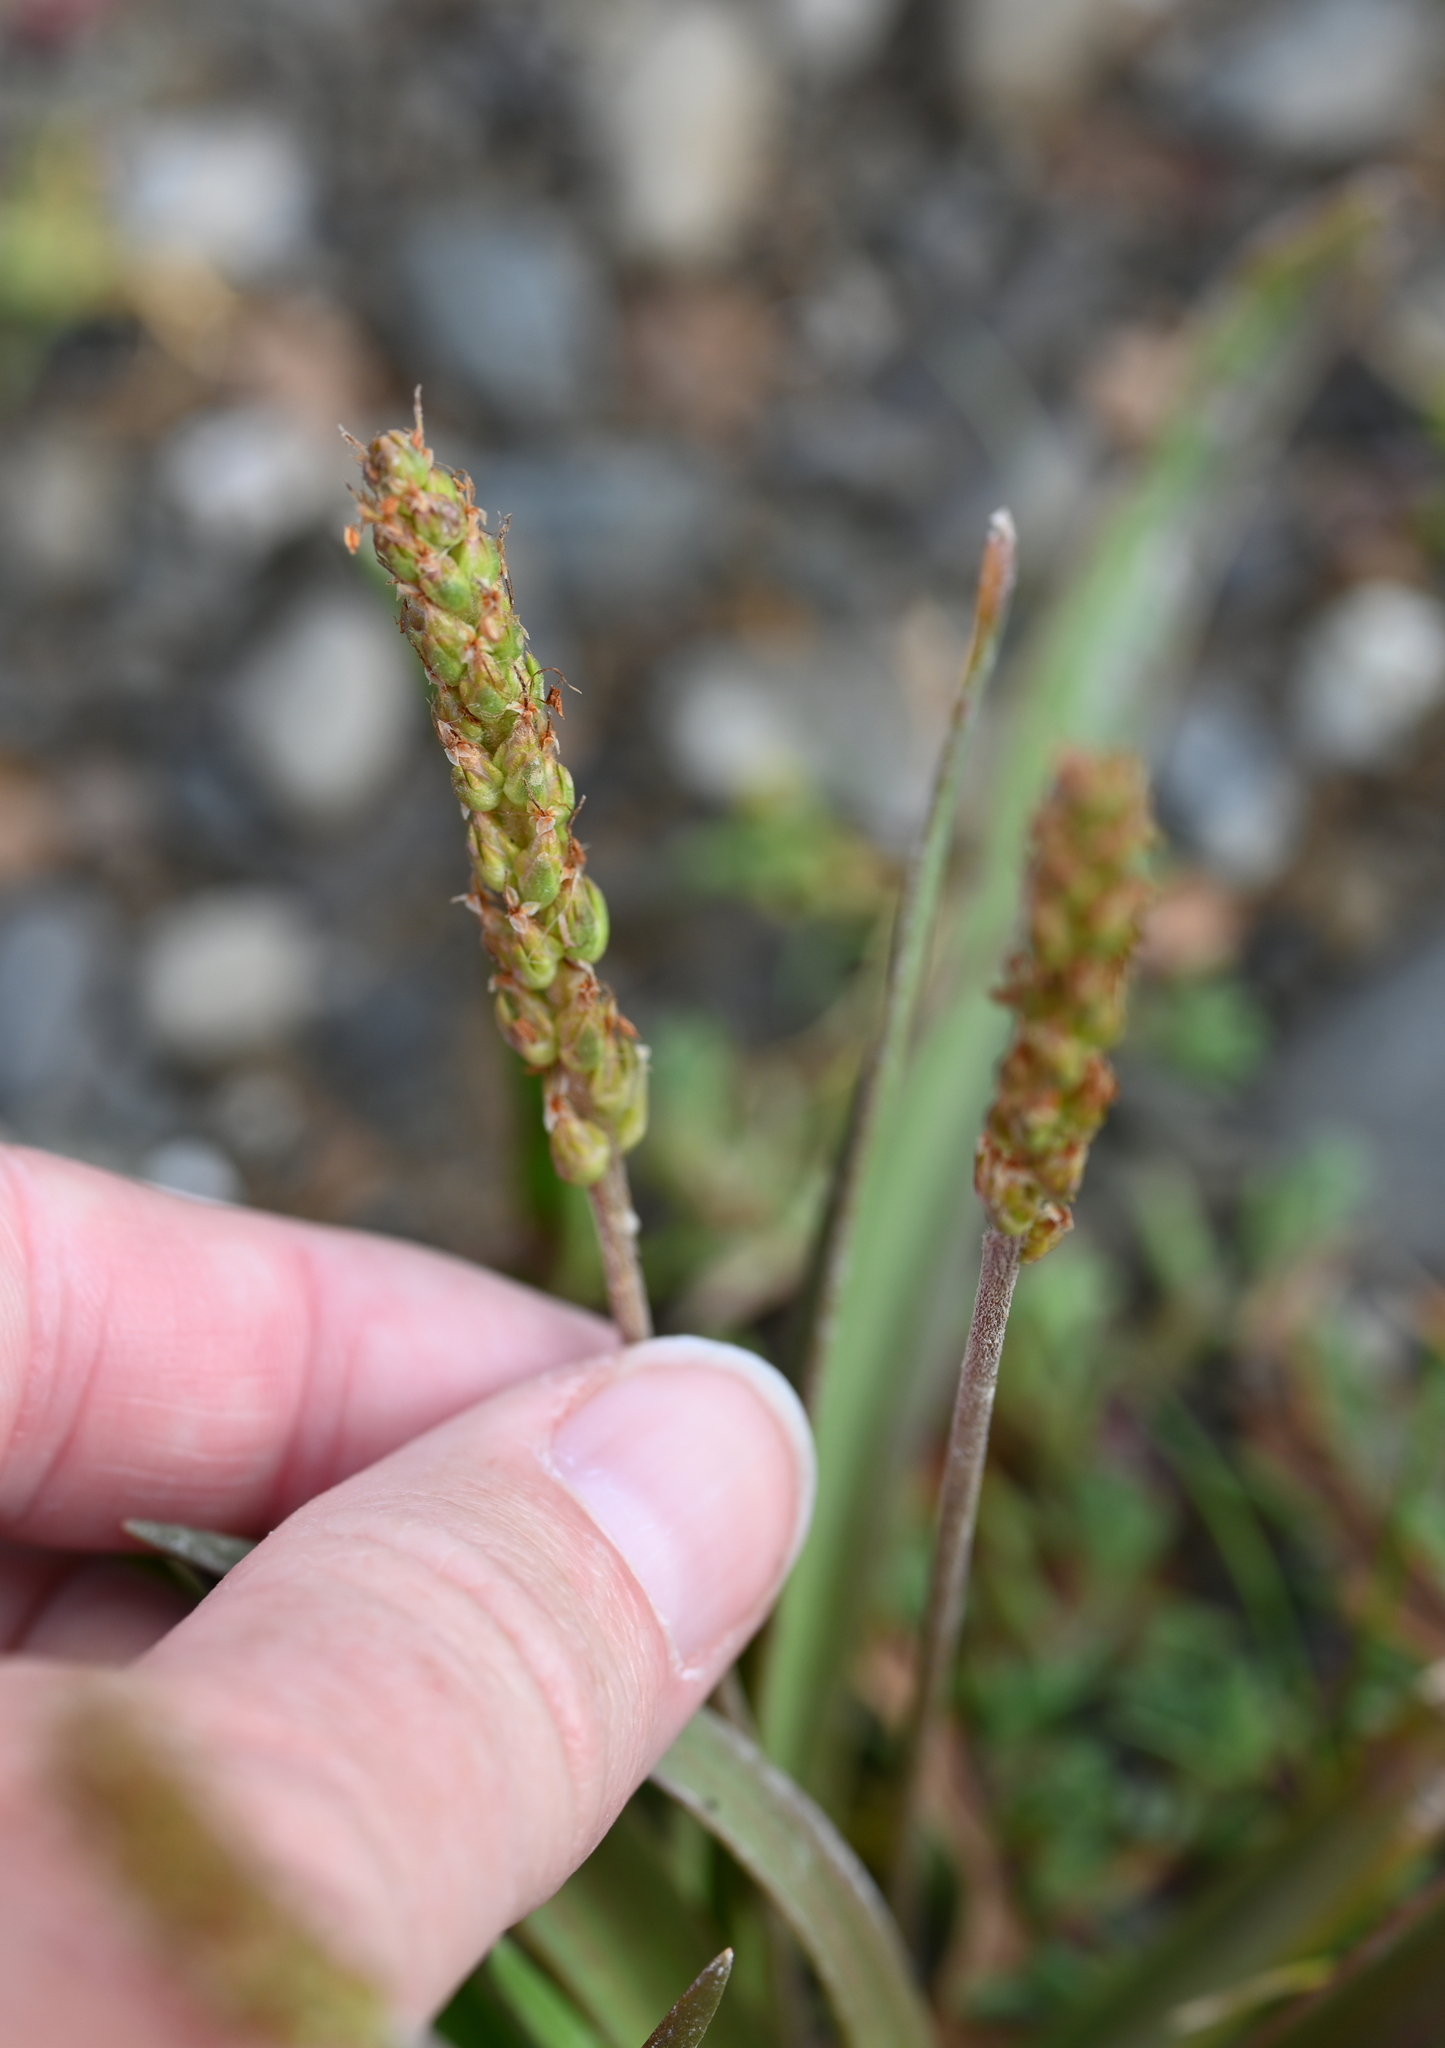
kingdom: Plantae
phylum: Tracheophyta
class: Magnoliopsida
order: Lamiales
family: Plantaginaceae
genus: Plantago
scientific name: Plantago maritima
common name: Sea plantain
